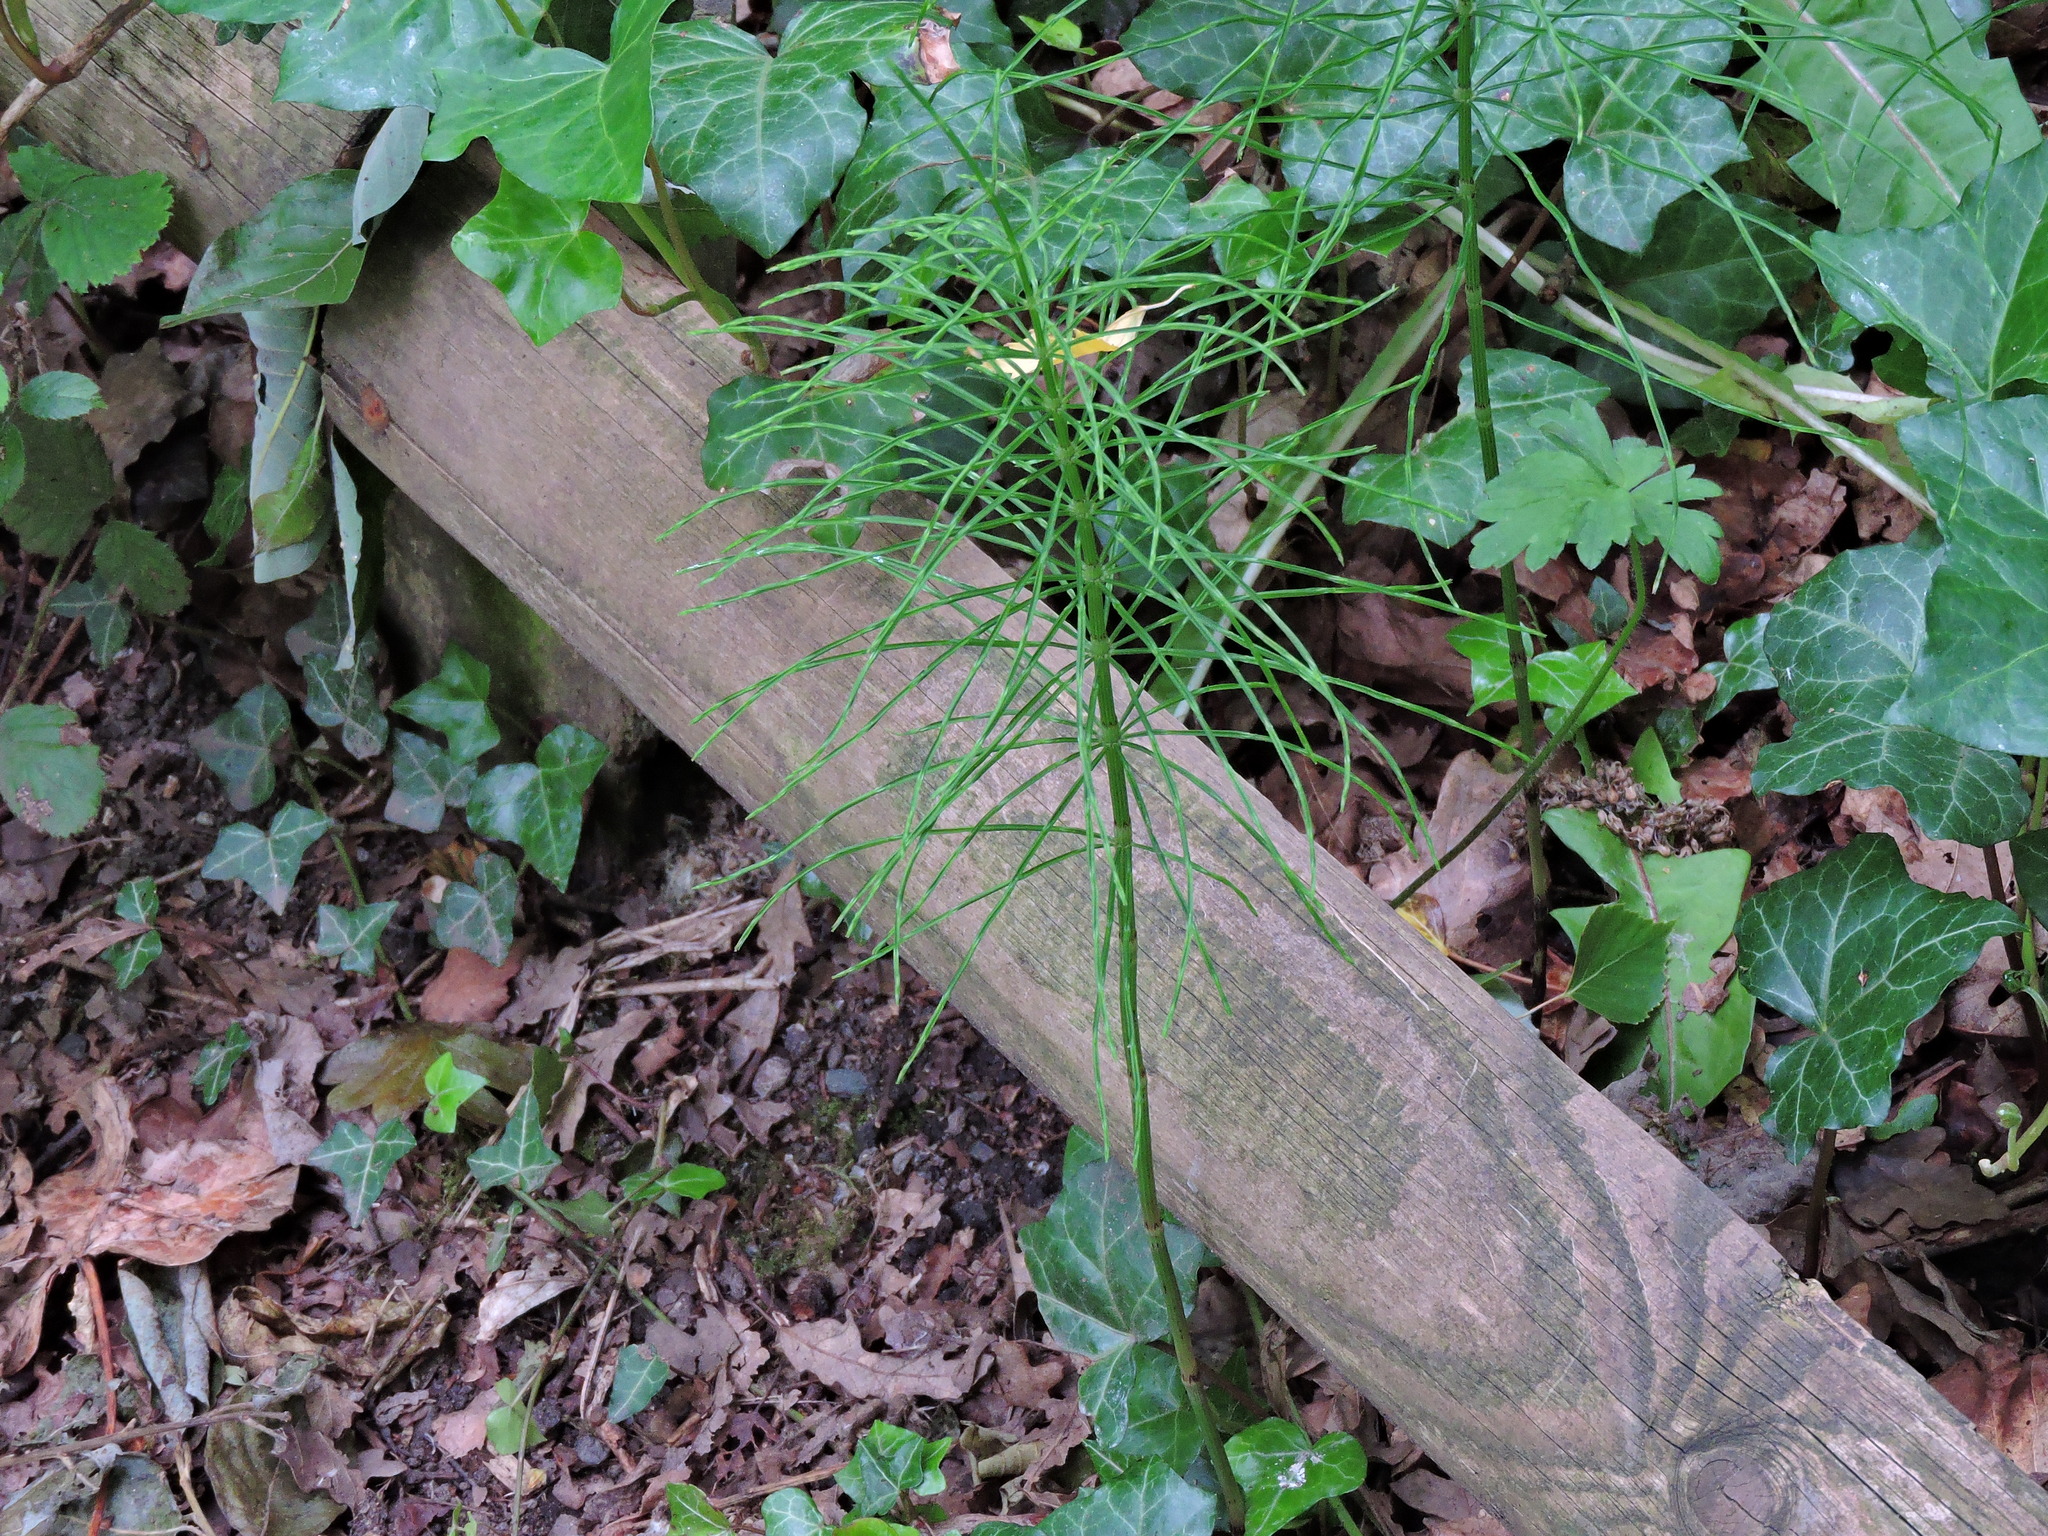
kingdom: Plantae
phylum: Tracheophyta
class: Polypodiopsida
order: Equisetales
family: Equisetaceae
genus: Equisetum
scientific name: Equisetum arvense
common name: Field horsetail
